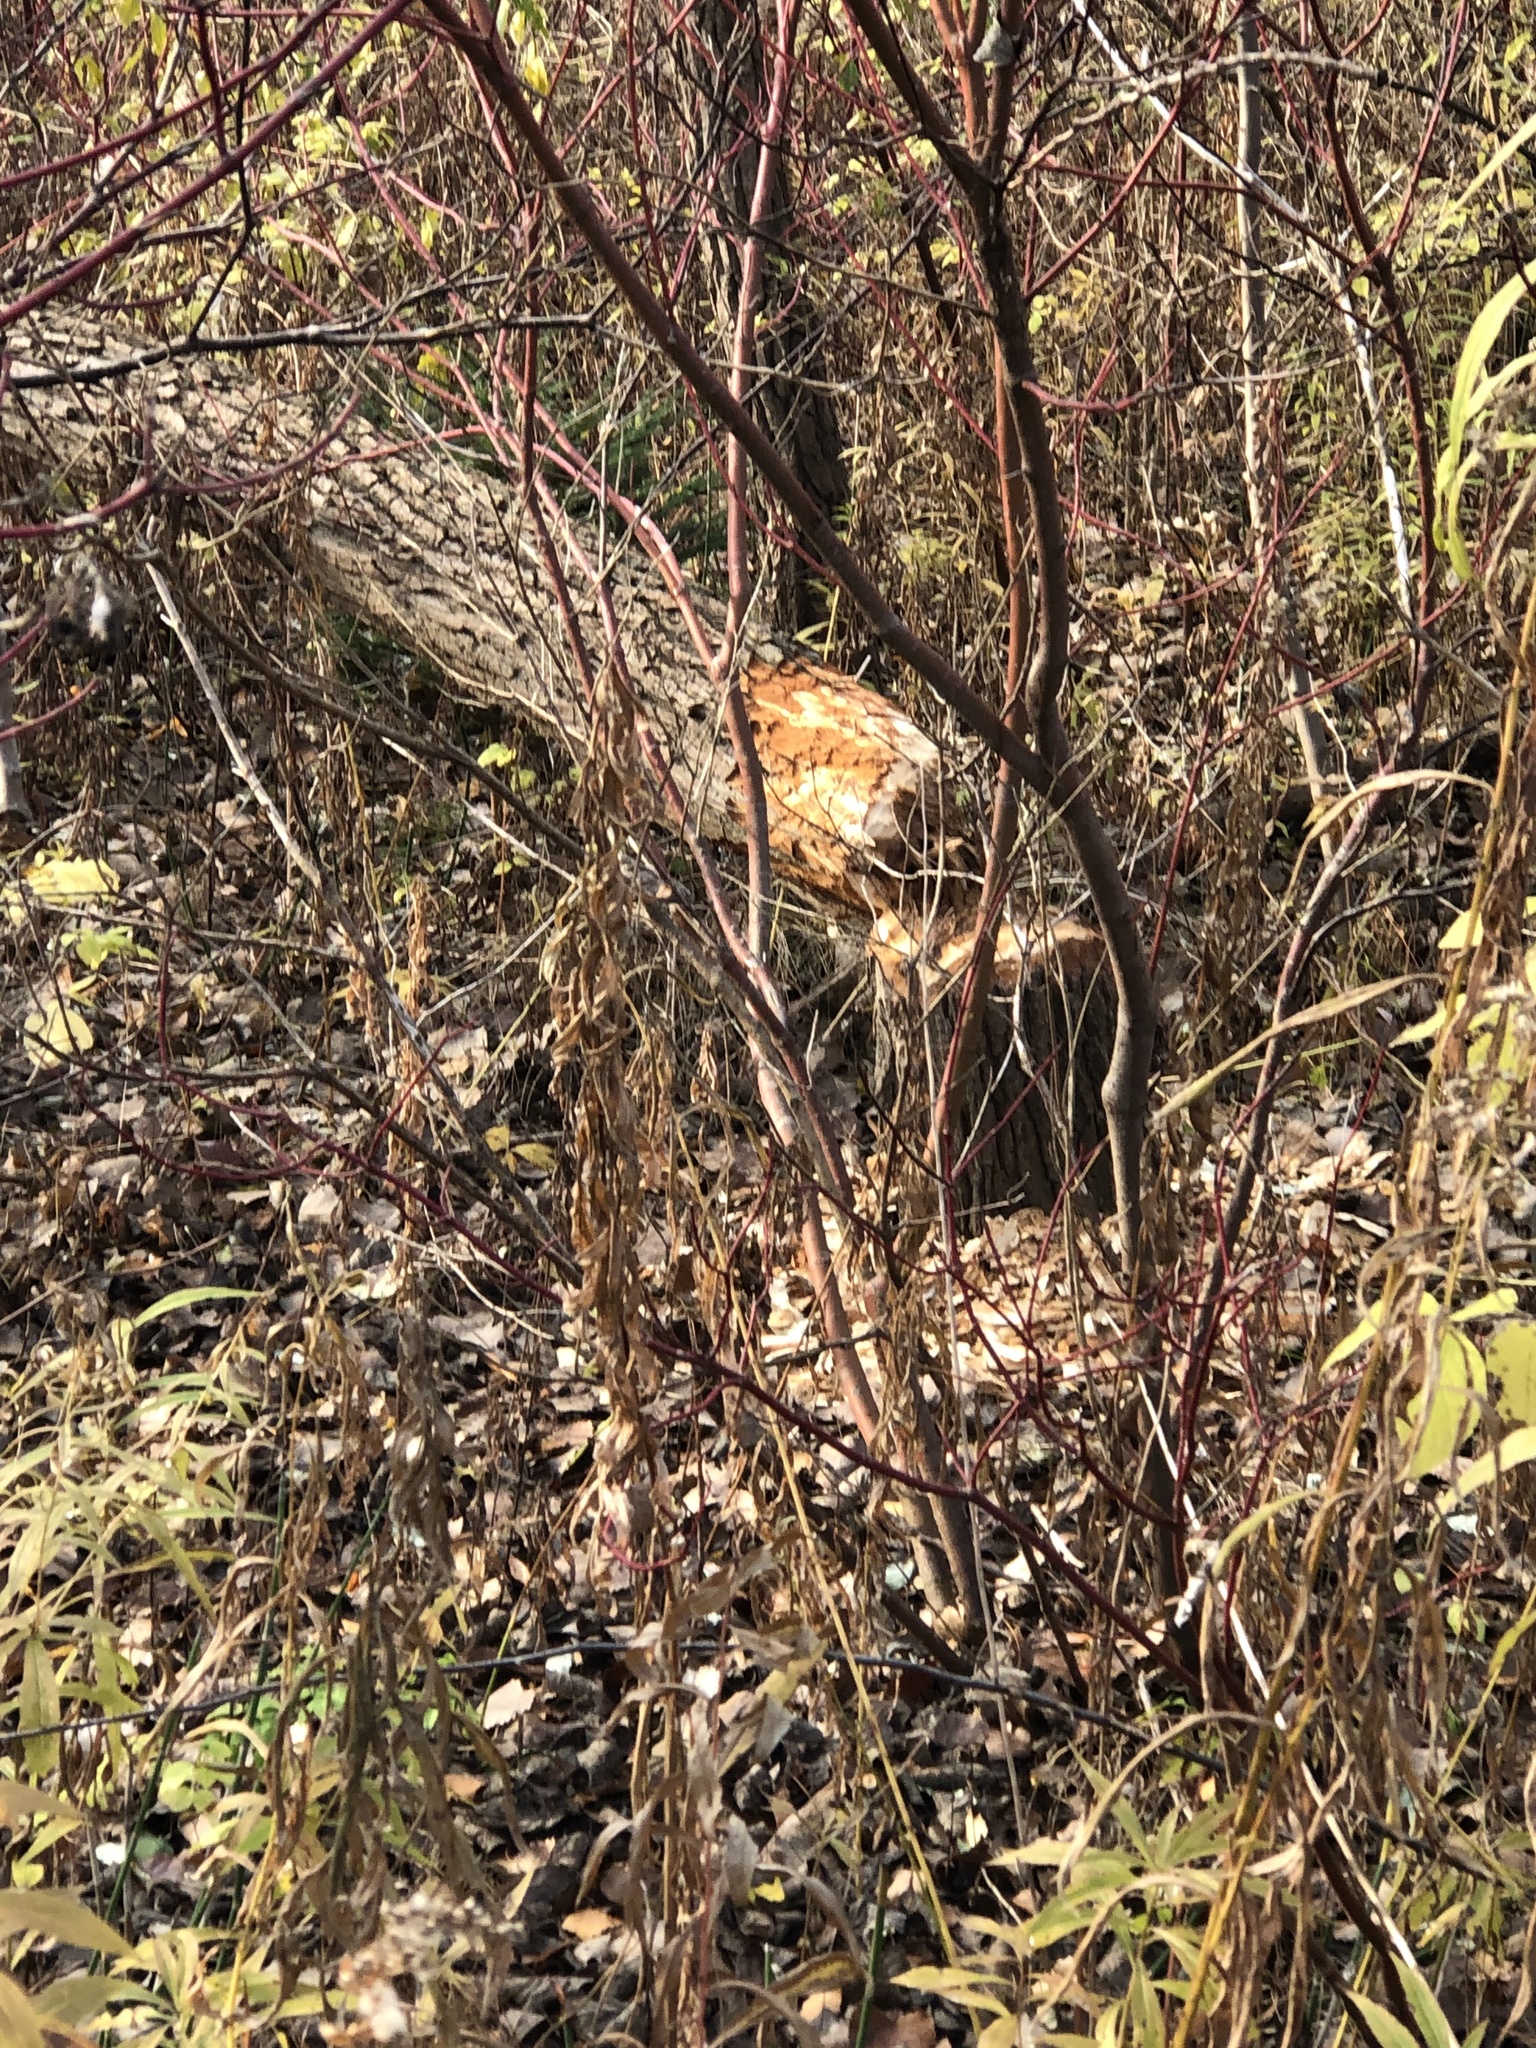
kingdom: Animalia
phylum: Chordata
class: Mammalia
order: Rodentia
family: Castoridae
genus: Castor
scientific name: Castor canadensis
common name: American beaver
